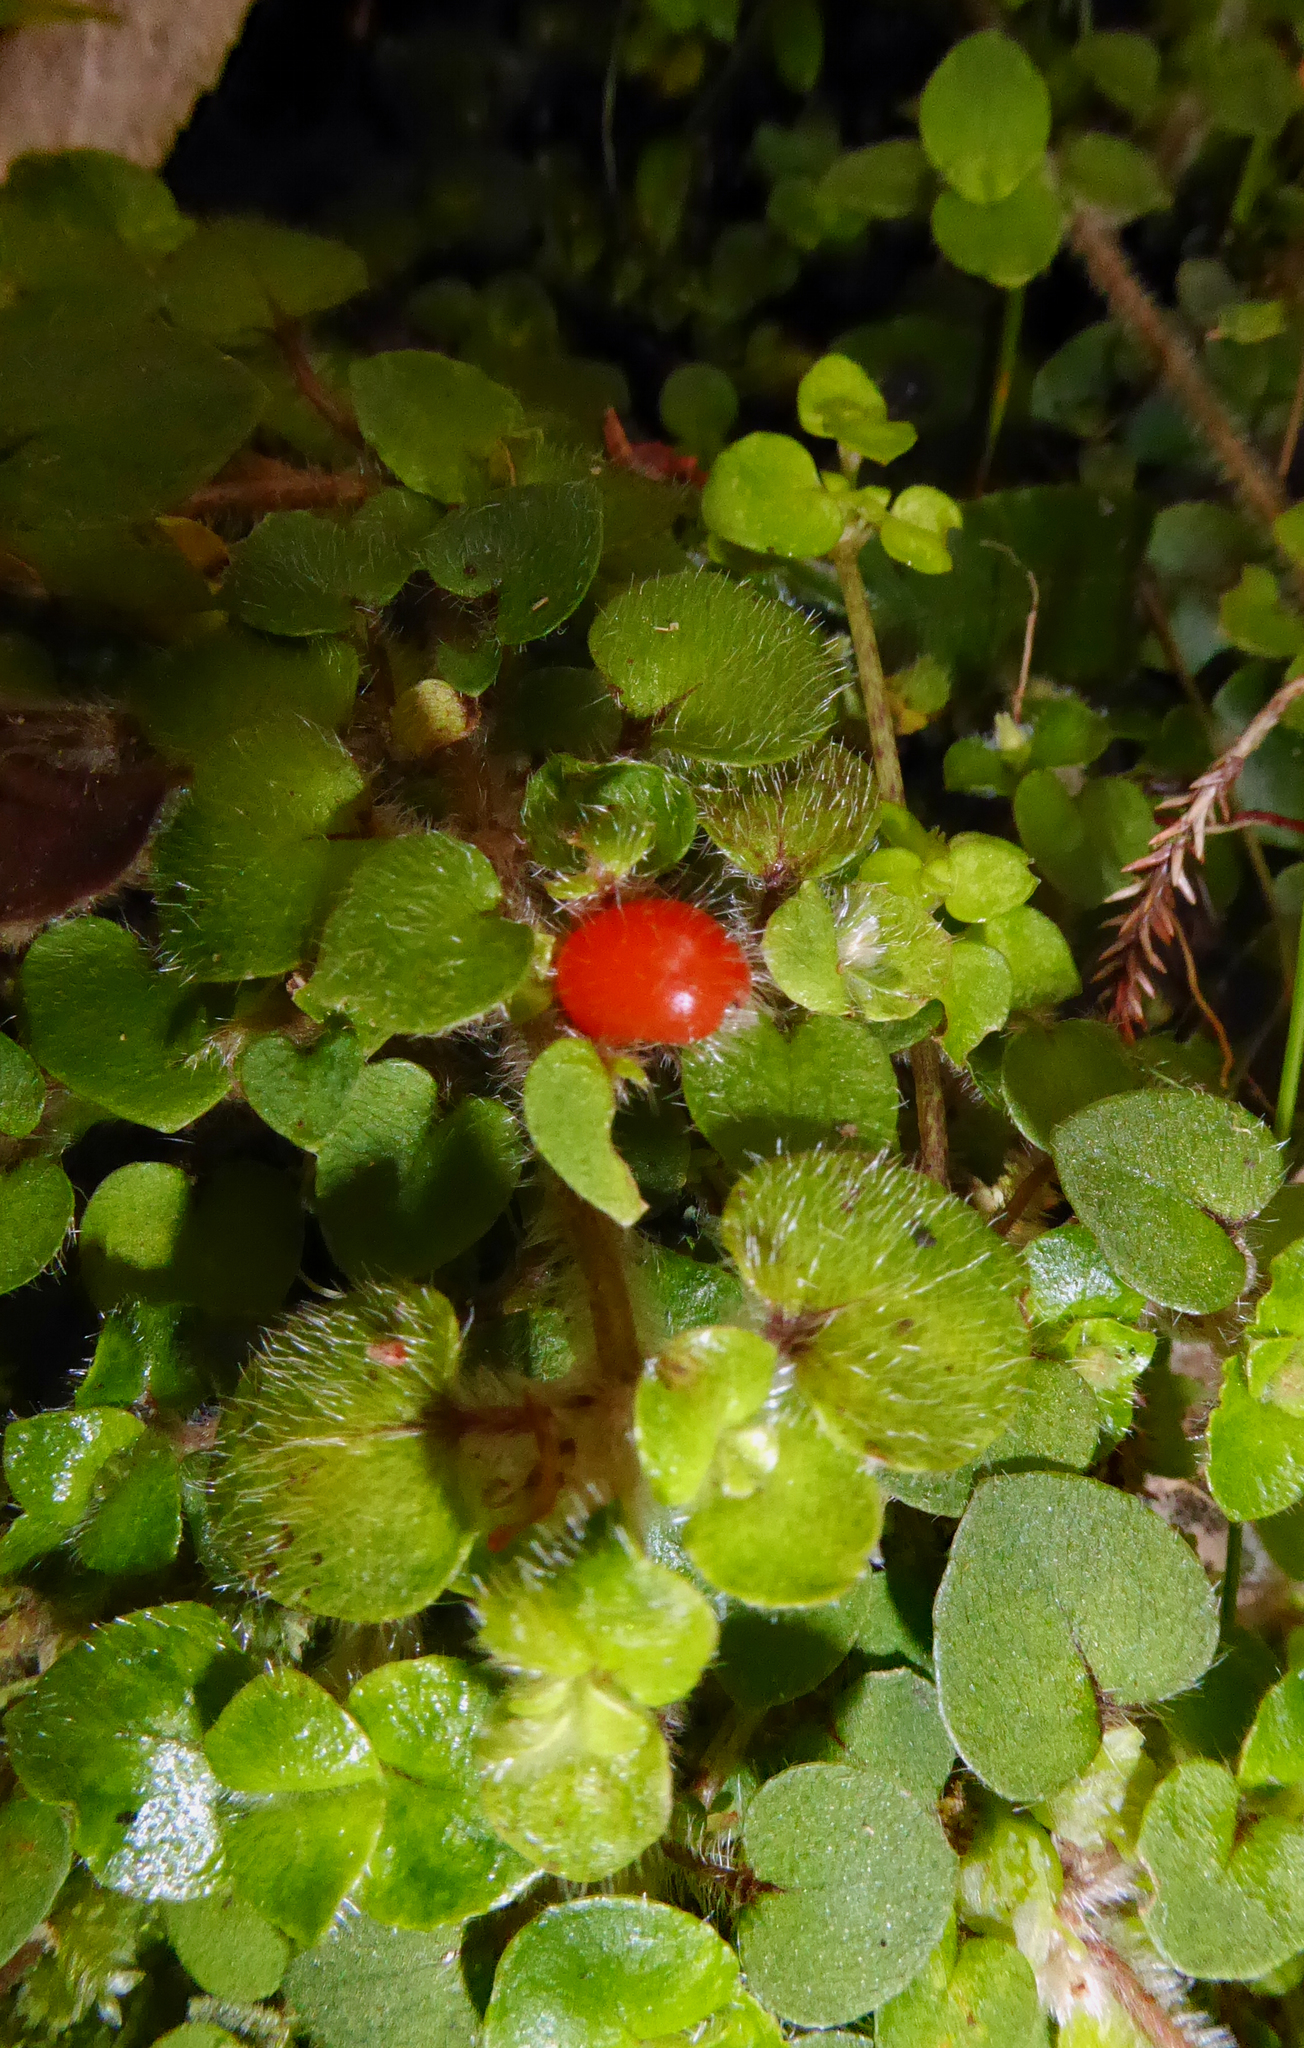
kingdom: Plantae
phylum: Tracheophyta
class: Magnoliopsida
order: Gentianales
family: Rubiaceae
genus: Nertera
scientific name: Nertera villosa
